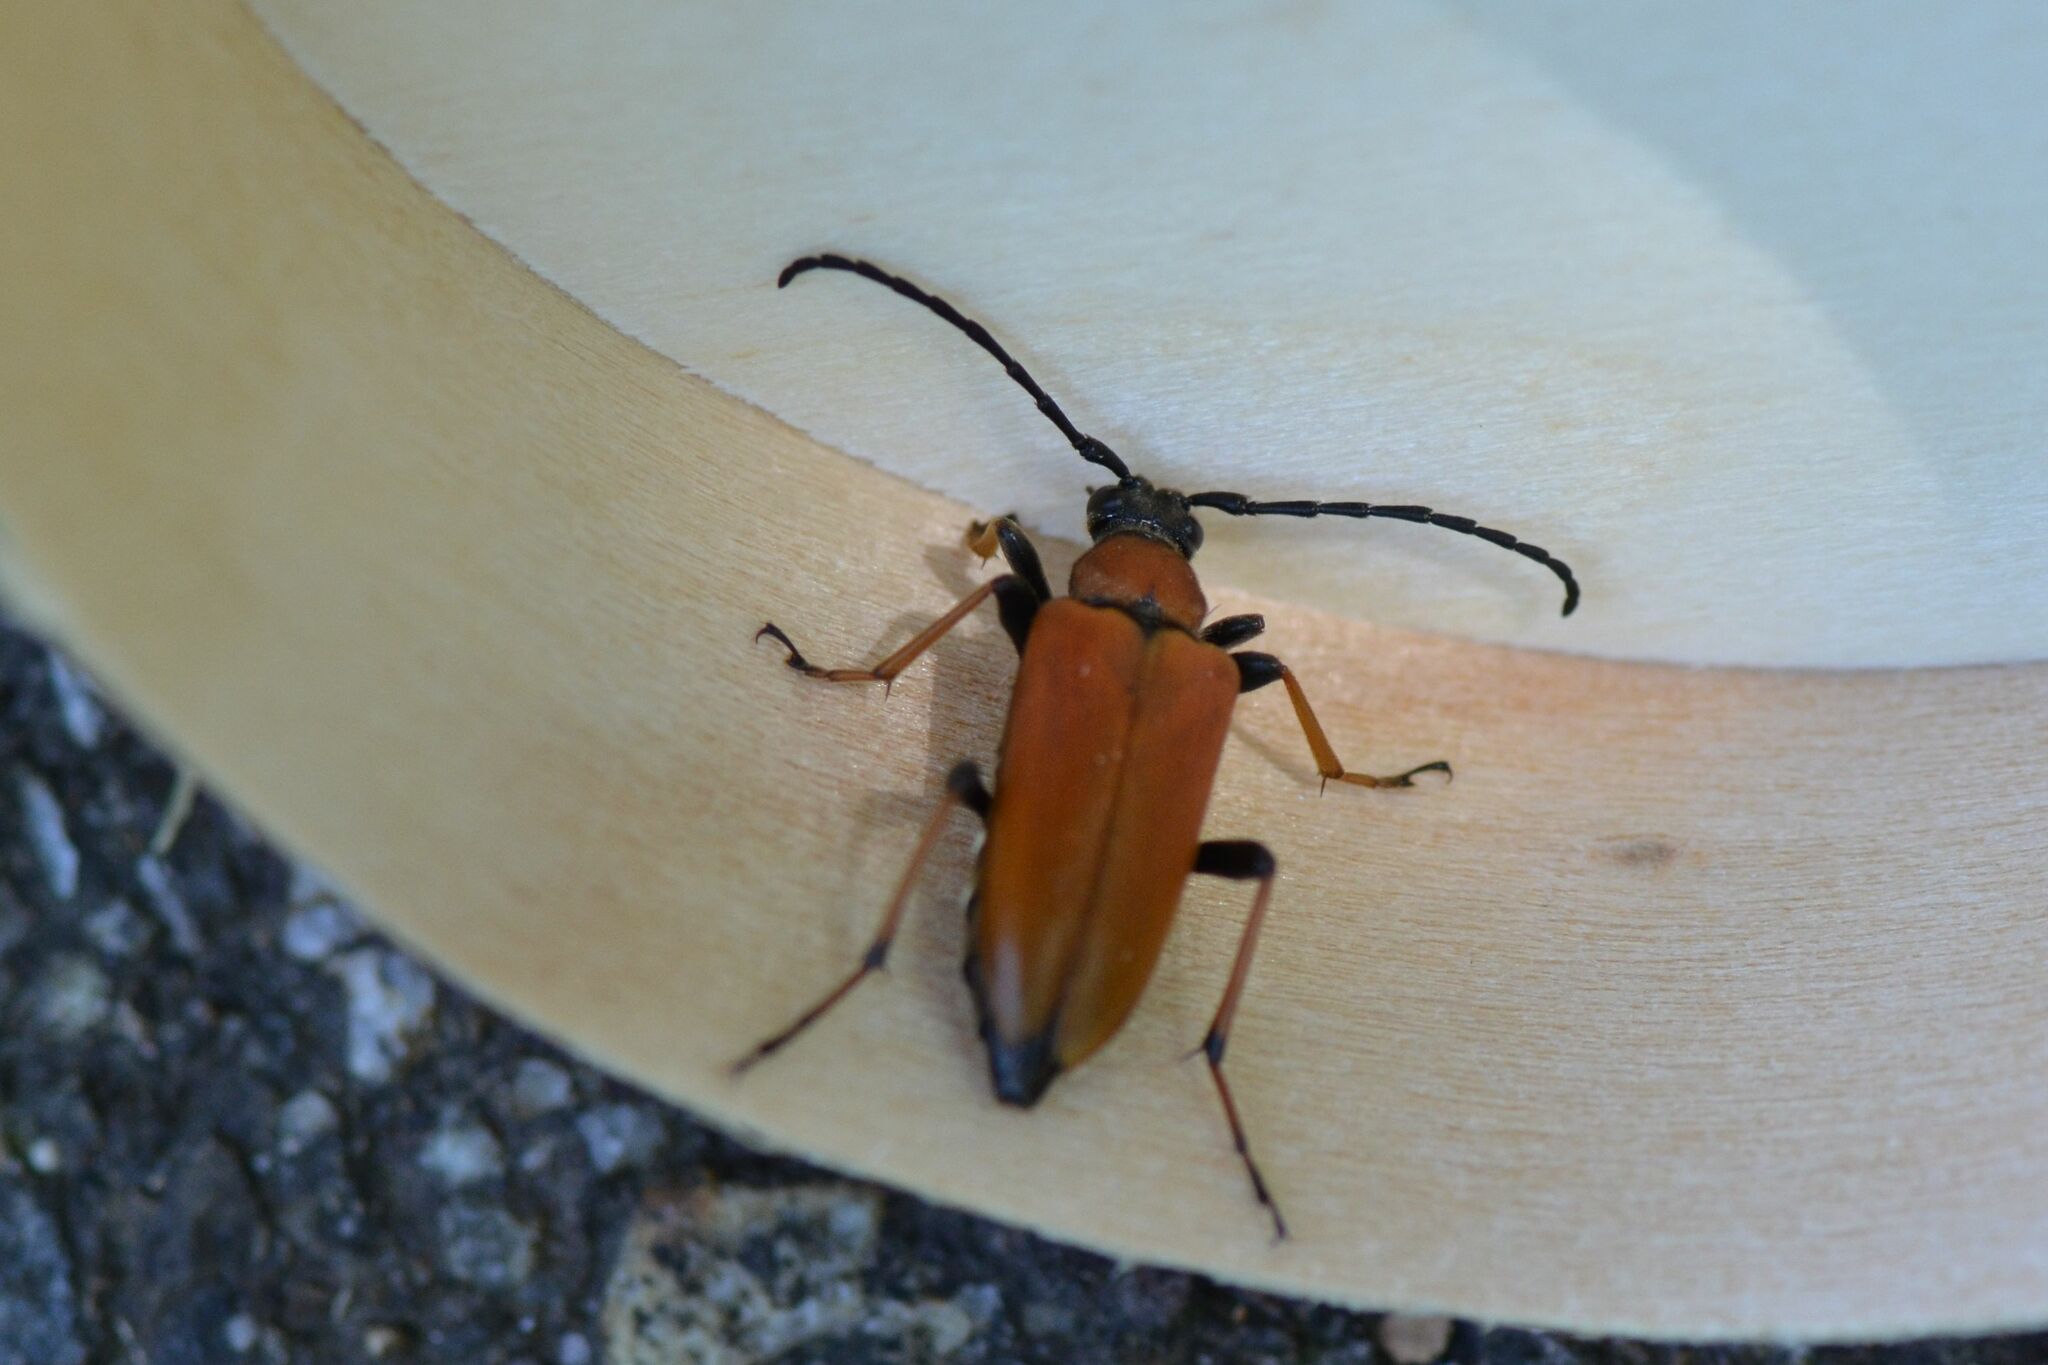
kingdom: Animalia
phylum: Arthropoda
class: Insecta
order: Coleoptera
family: Cerambycidae
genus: Stictoleptura
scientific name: Stictoleptura rubra
